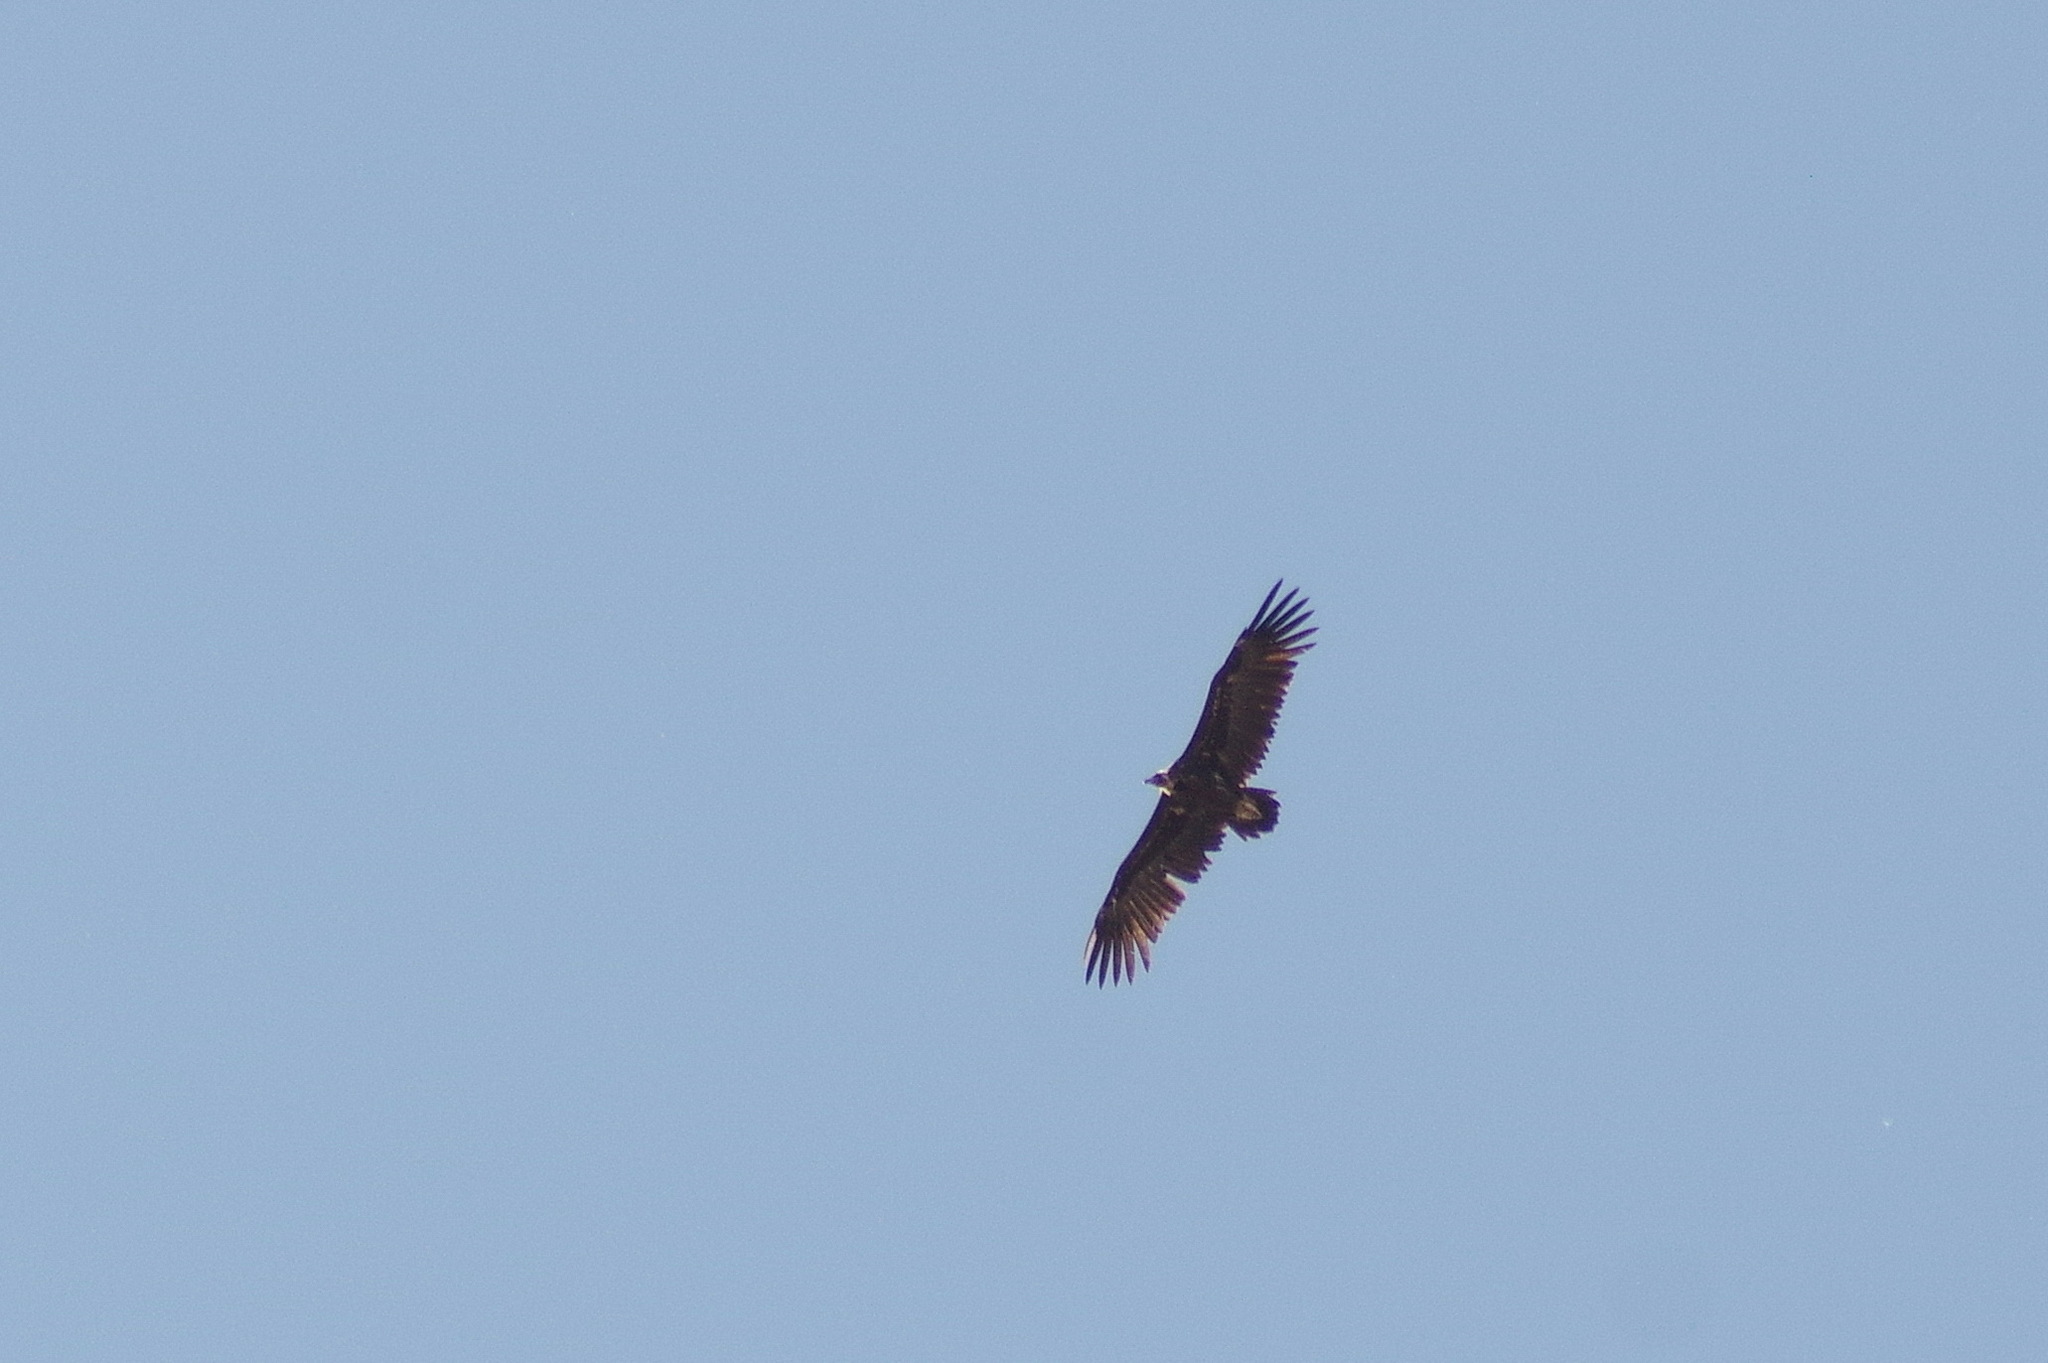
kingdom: Animalia
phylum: Chordata
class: Aves
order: Accipitriformes
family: Accipitridae
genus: Aegypius
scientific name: Aegypius monachus
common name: Cinereous vulture
